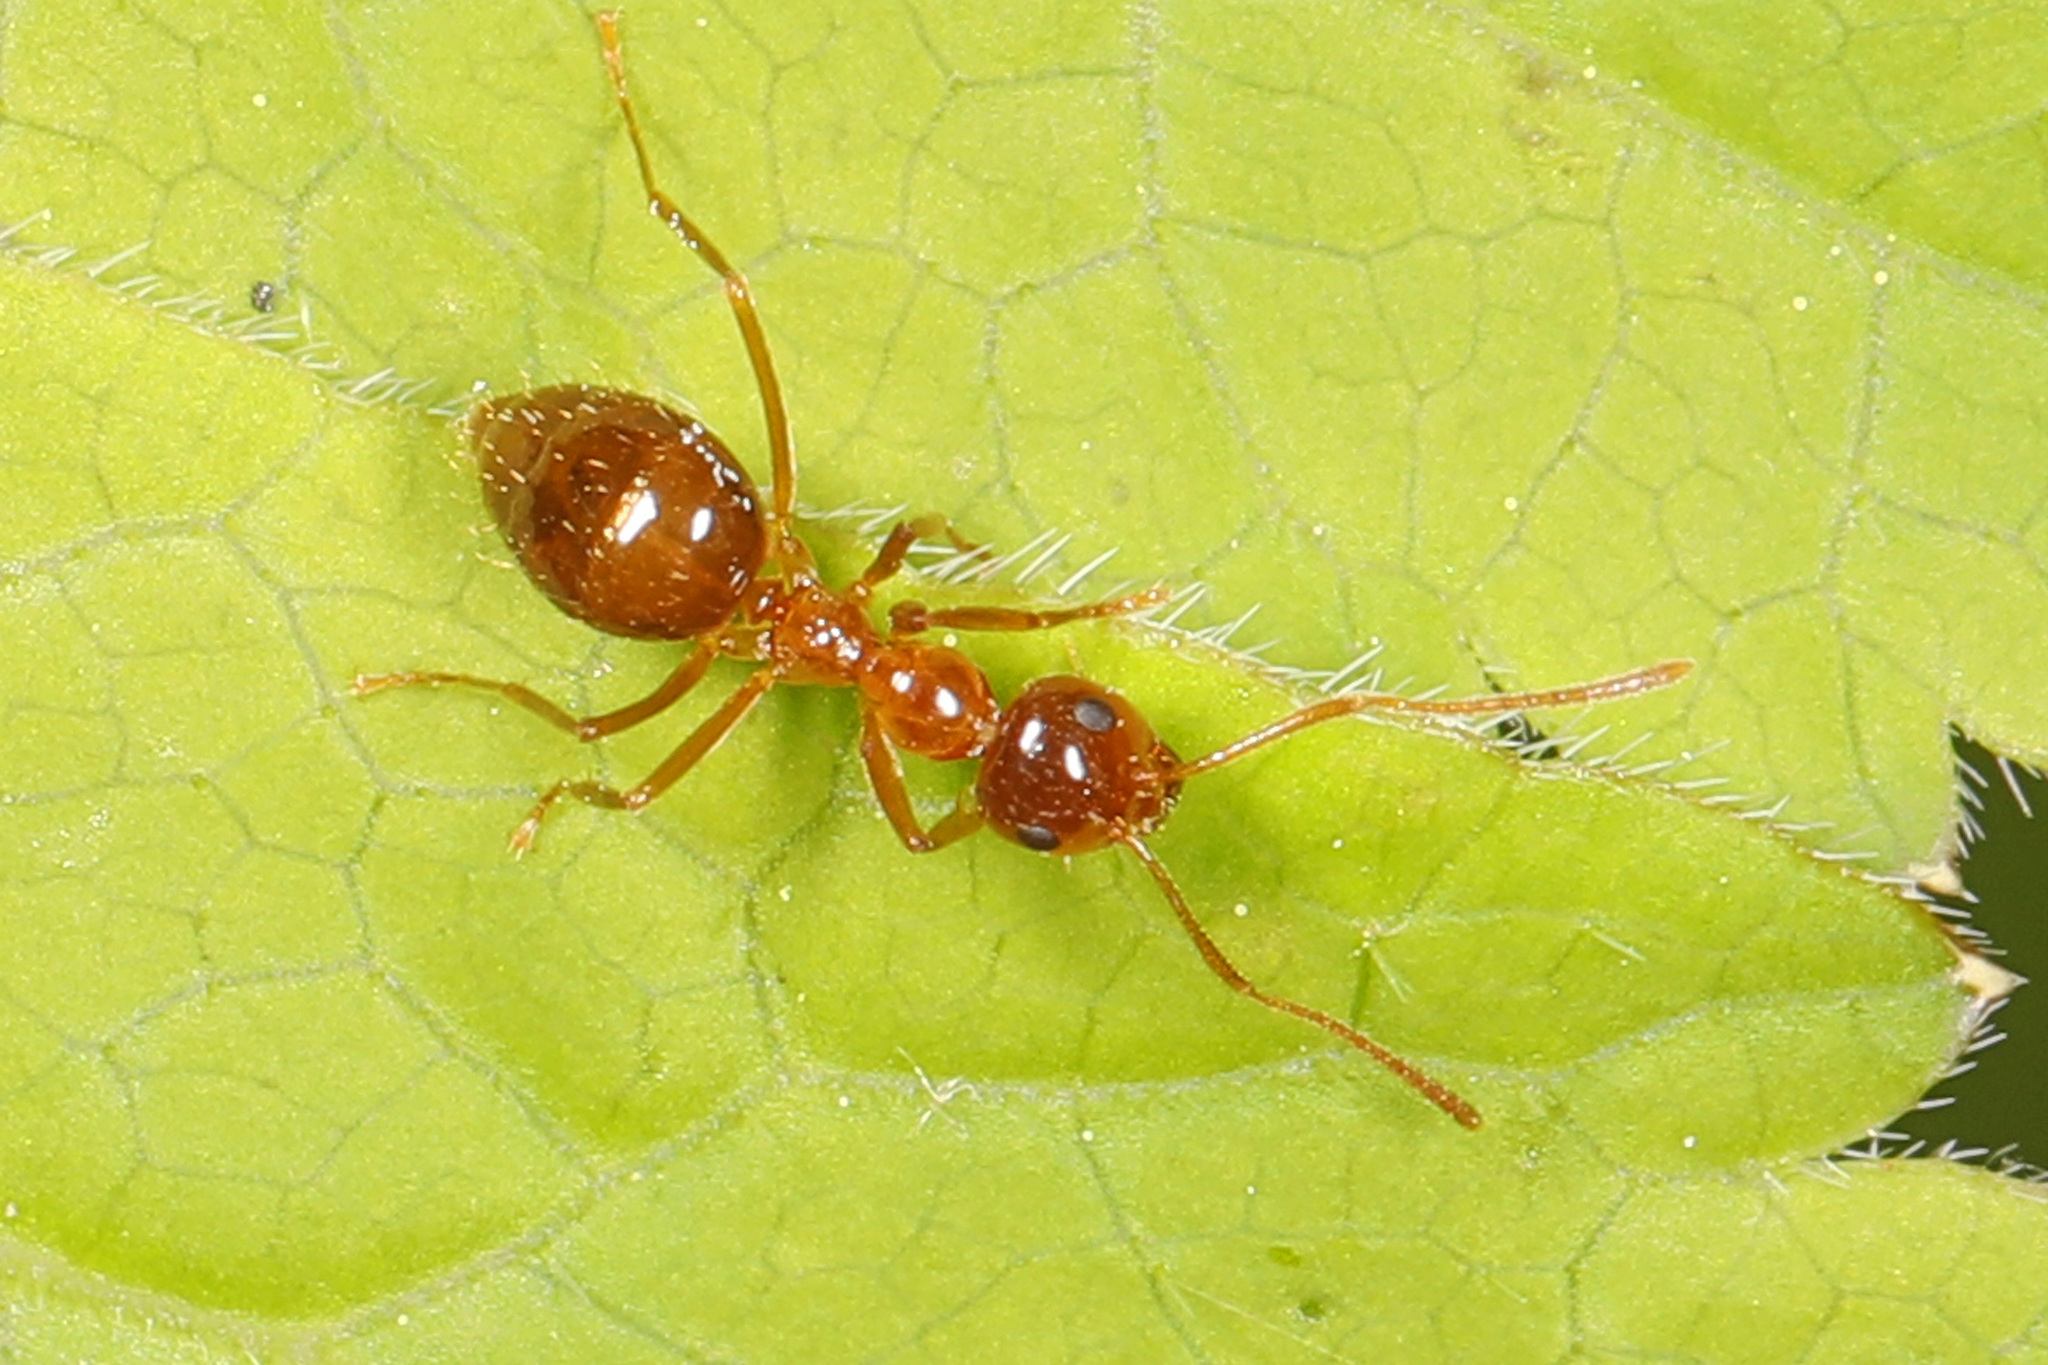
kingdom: Animalia
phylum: Arthropoda
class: Insecta
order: Hymenoptera
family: Formicidae
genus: Prenolepis
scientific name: Prenolepis imparis
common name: Small honey ant
